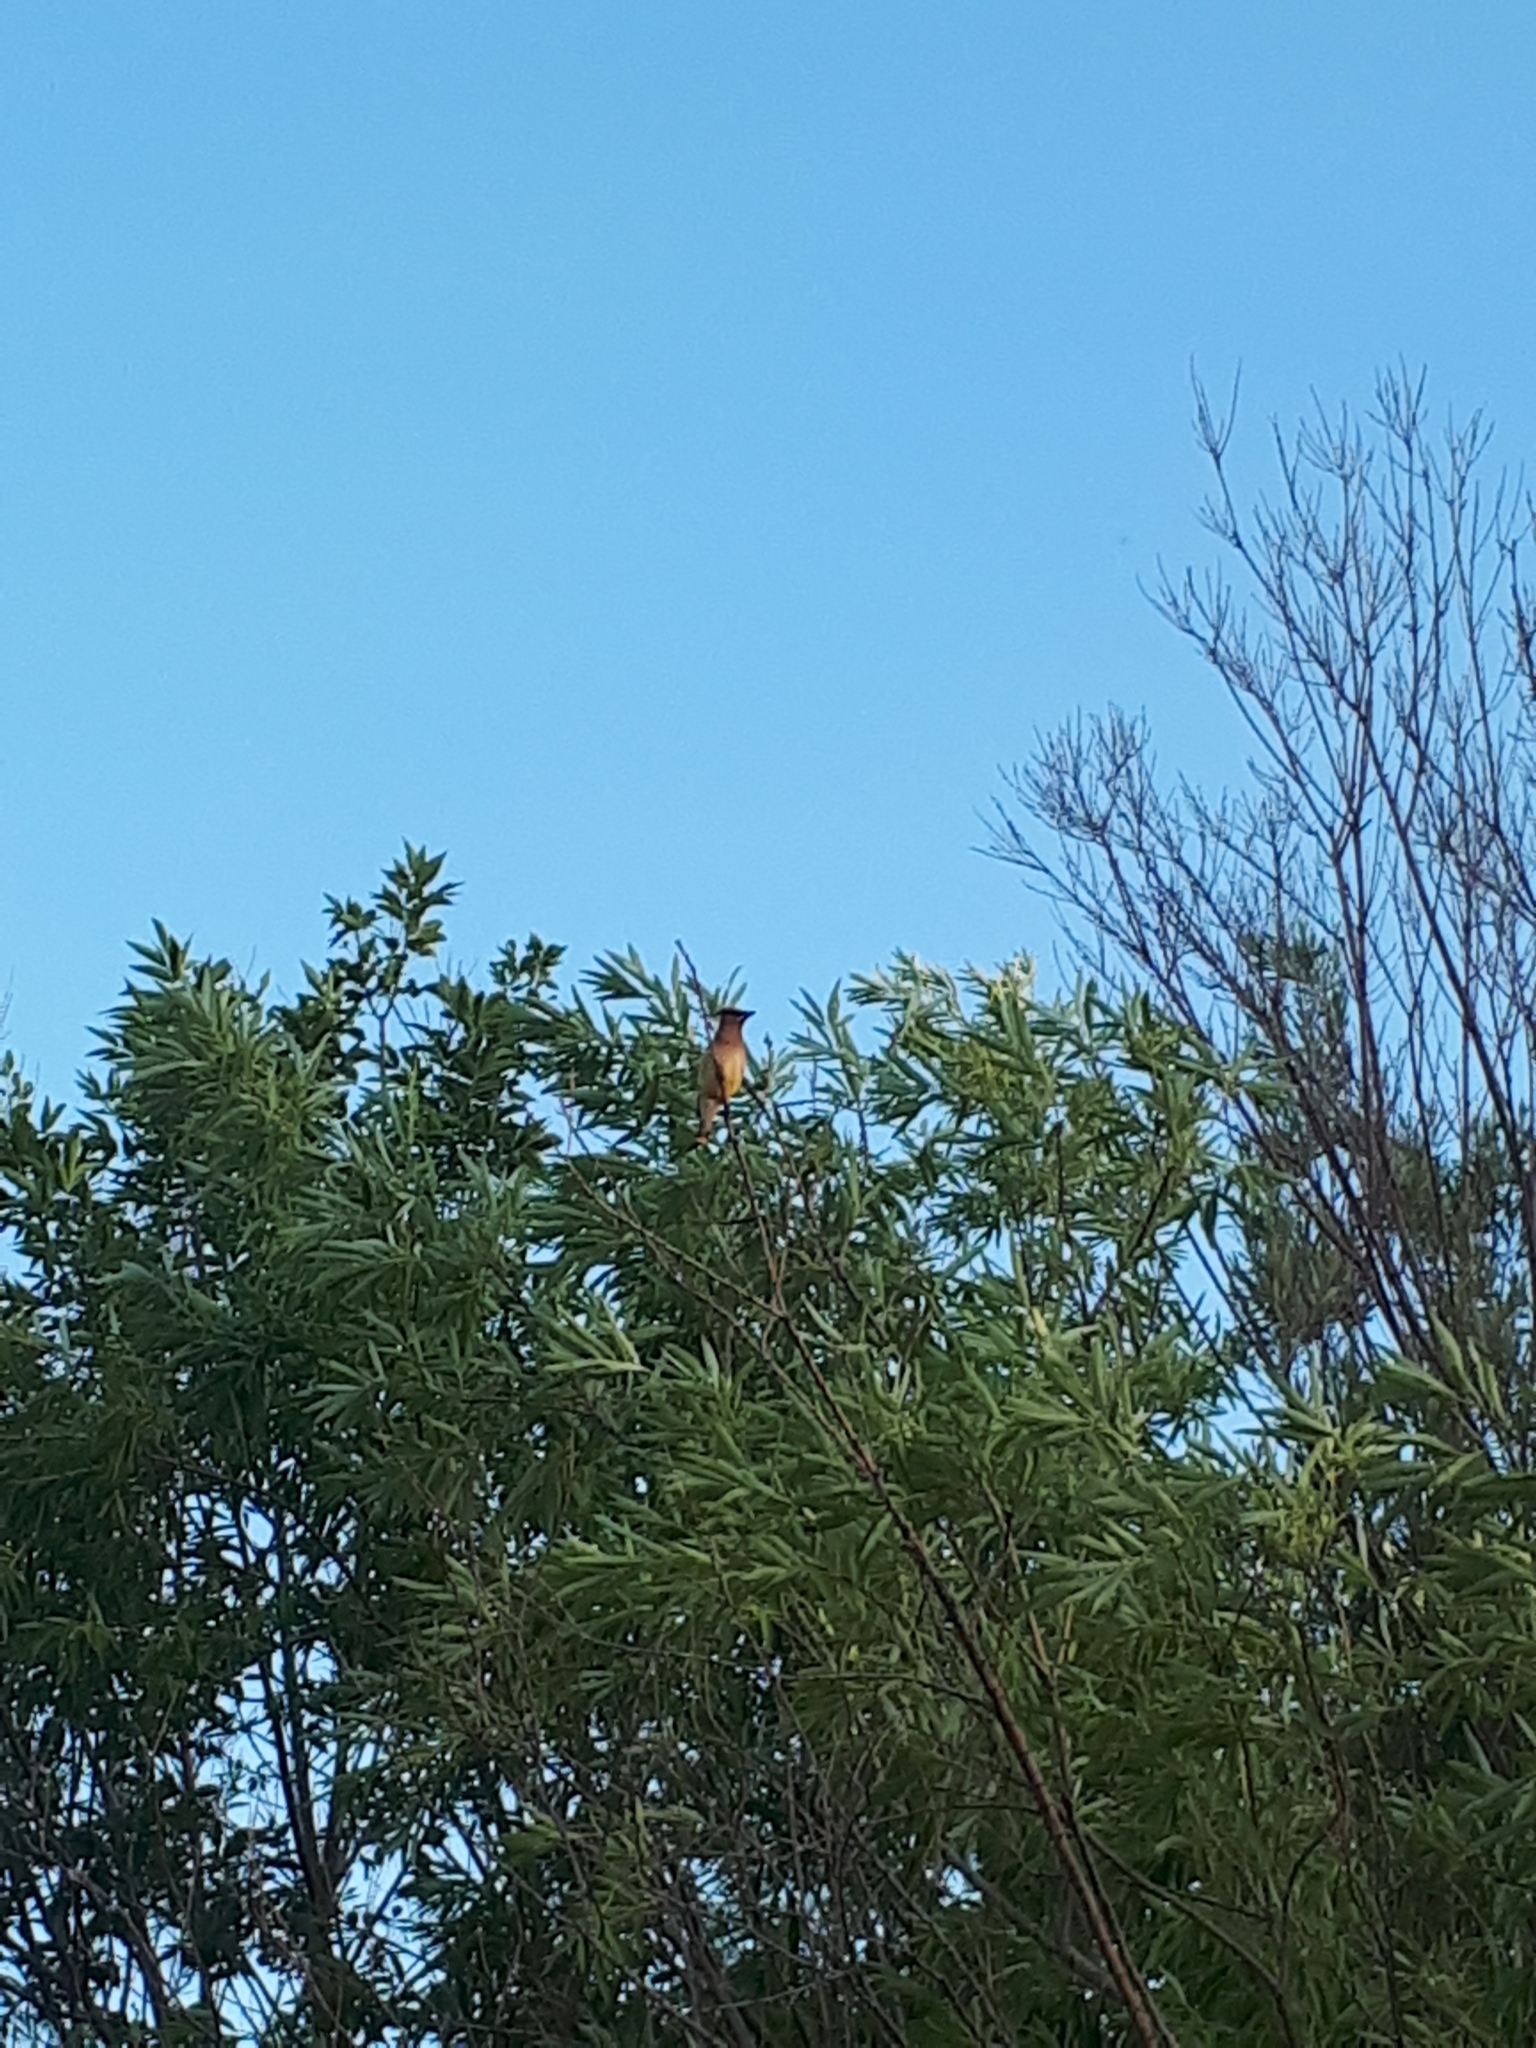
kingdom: Animalia
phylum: Chordata
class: Aves
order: Passeriformes
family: Bombycillidae
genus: Bombycilla
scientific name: Bombycilla cedrorum
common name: Cedar waxwing
